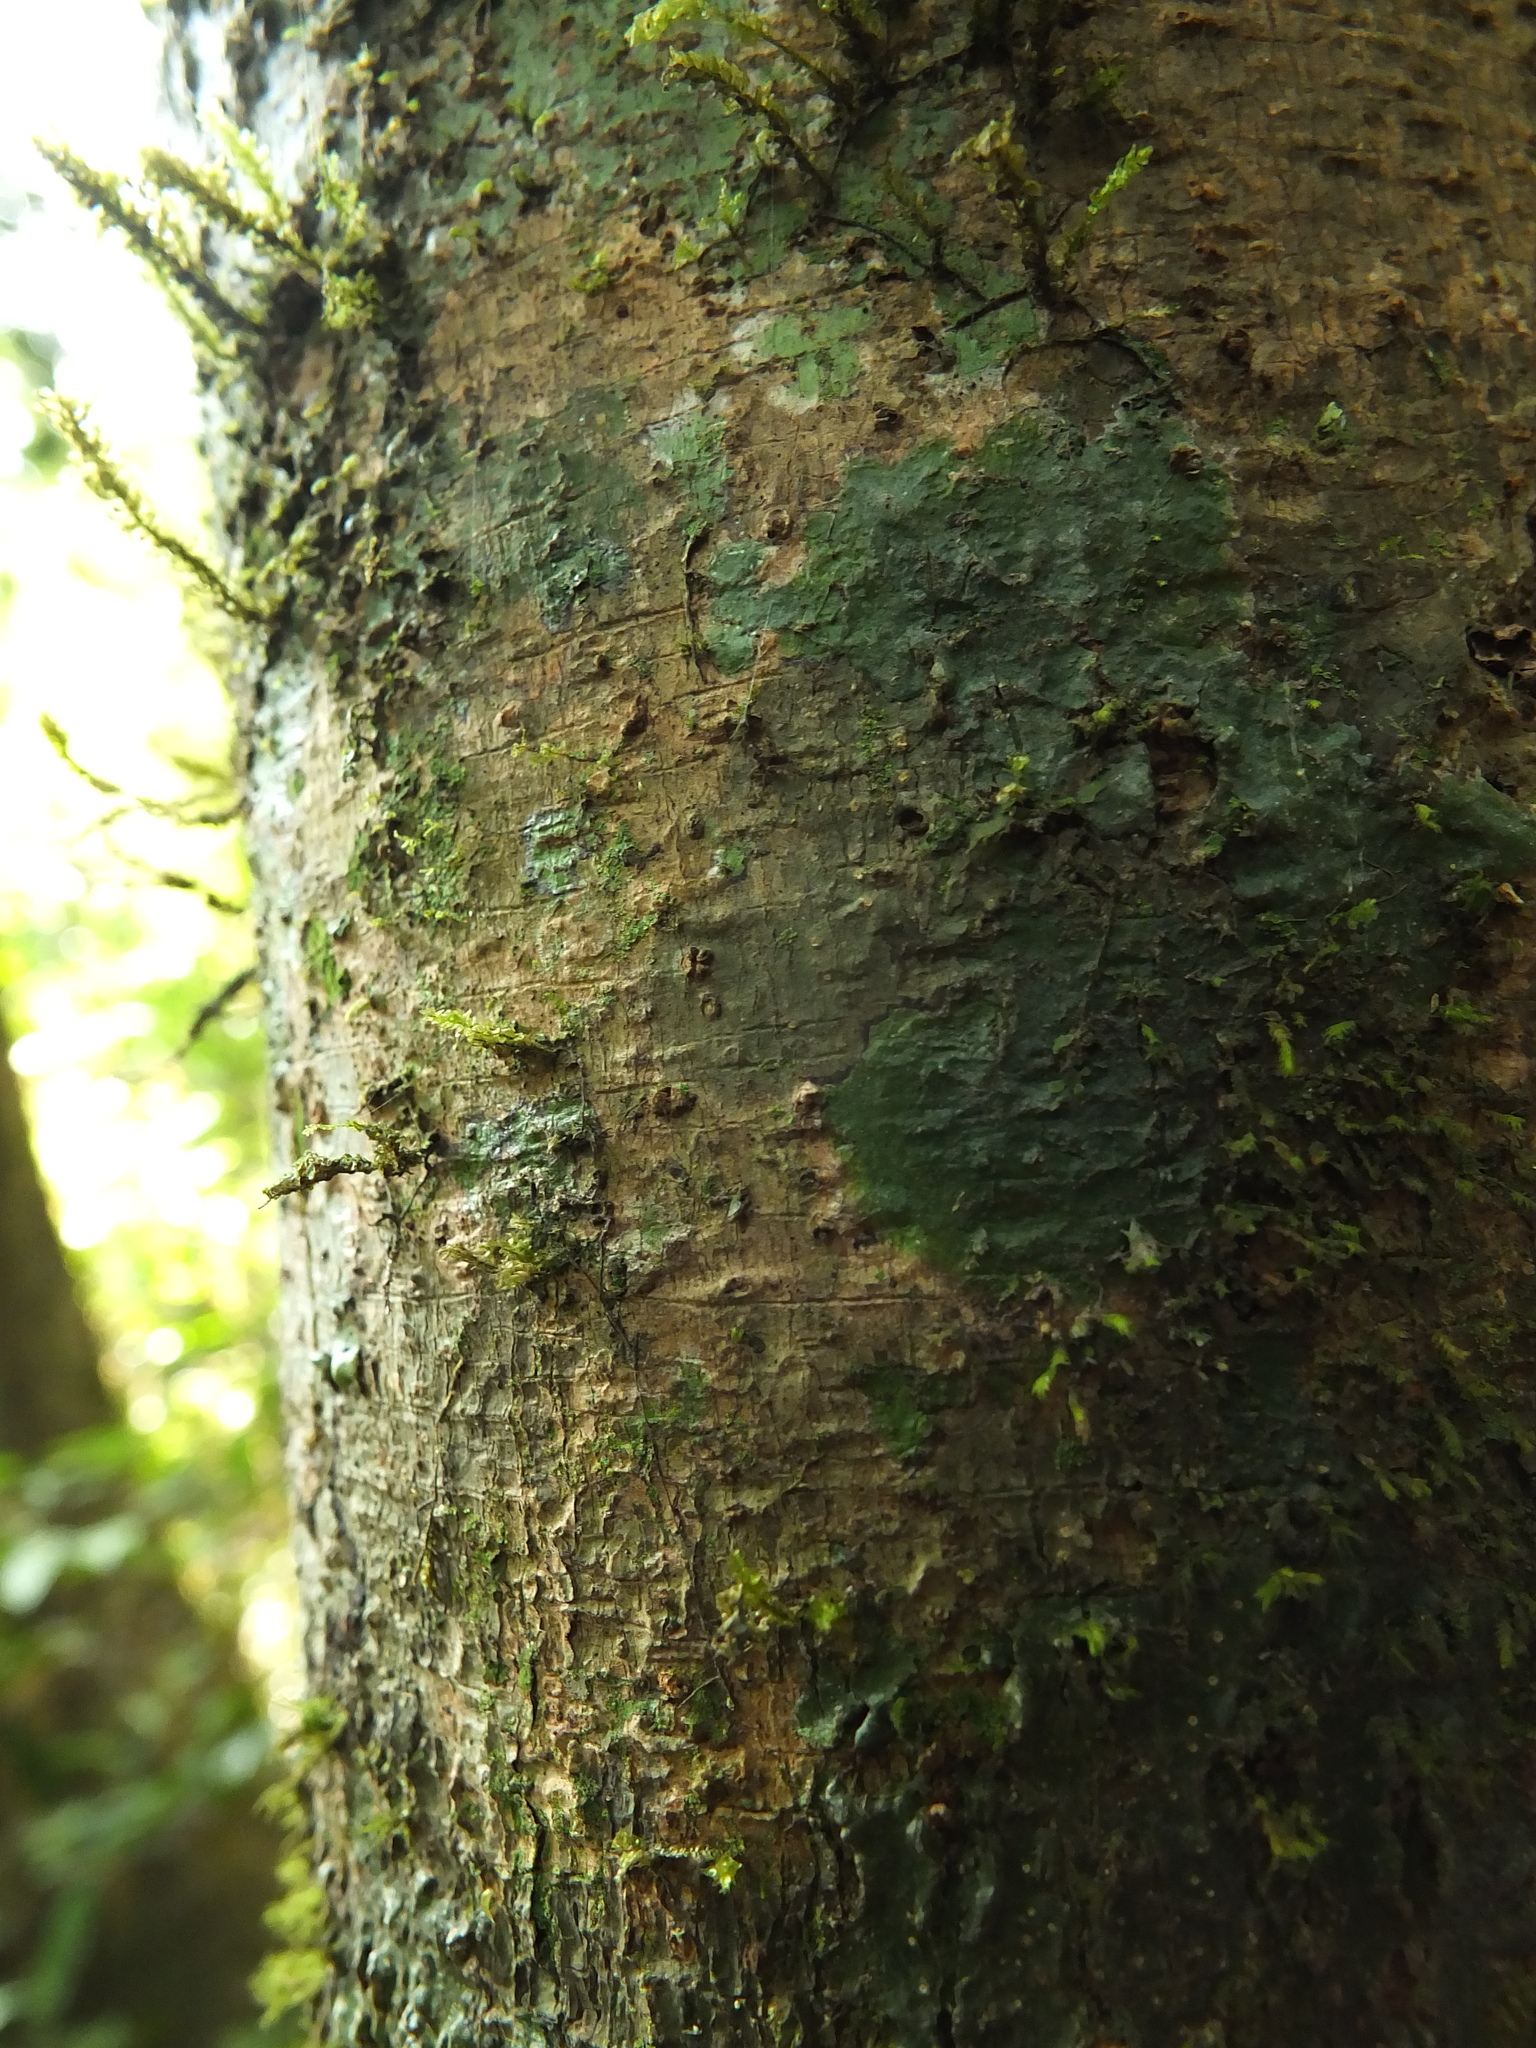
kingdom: Plantae
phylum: Tracheophyta
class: Magnoliopsida
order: Ericales
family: Sapotaceae
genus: Palaquium
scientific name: Palaquium ellipticum
